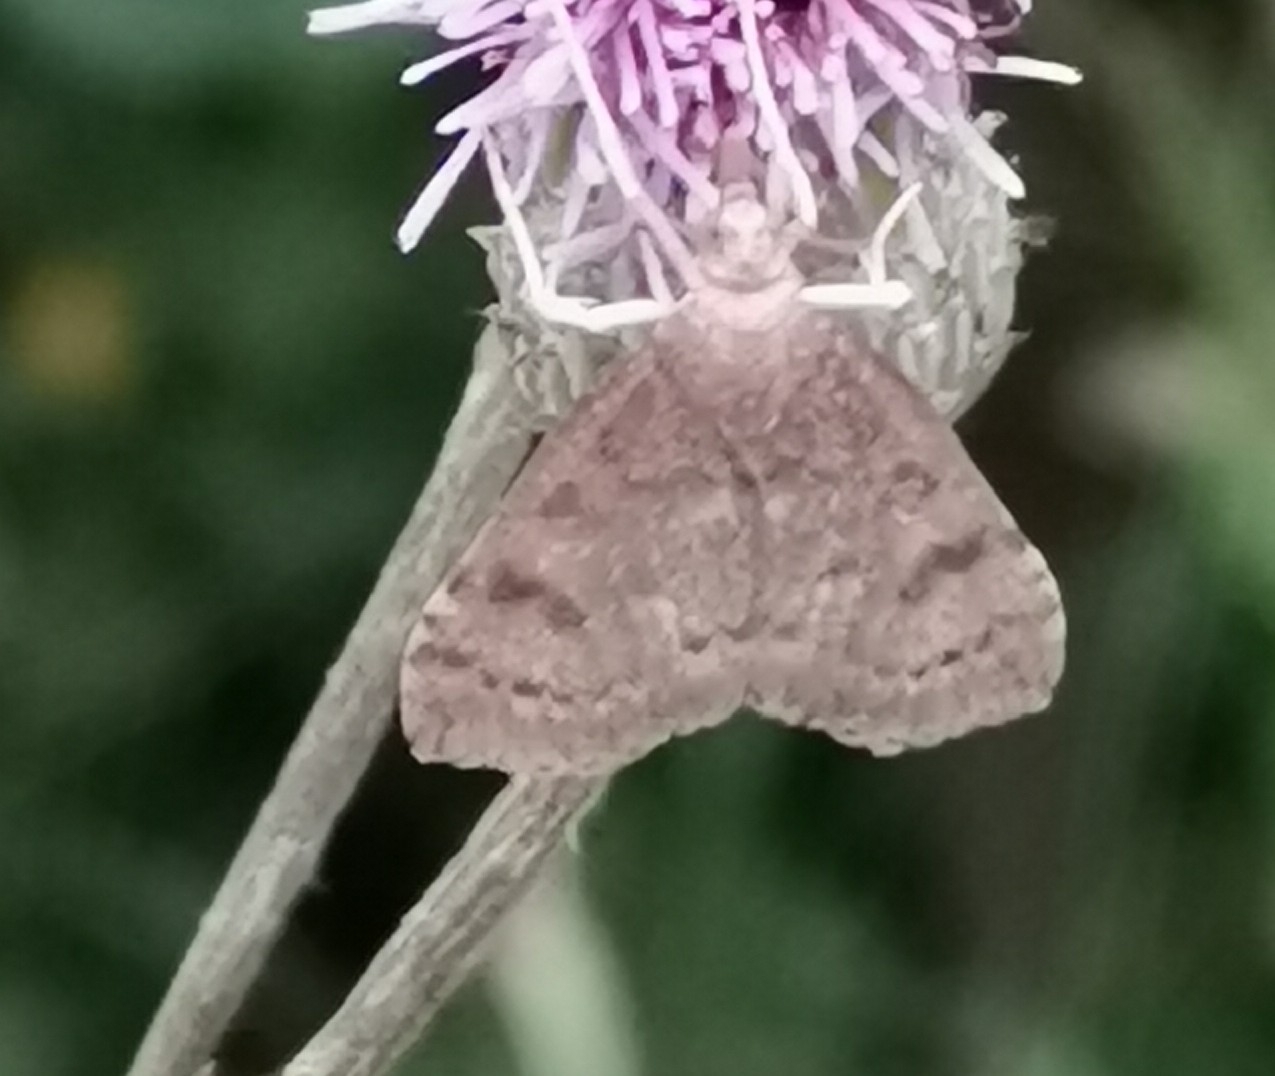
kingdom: Animalia
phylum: Arthropoda
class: Insecta
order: Lepidoptera
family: Crambidae
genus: Udea
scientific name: Udea prunalis
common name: Dusky pearl
